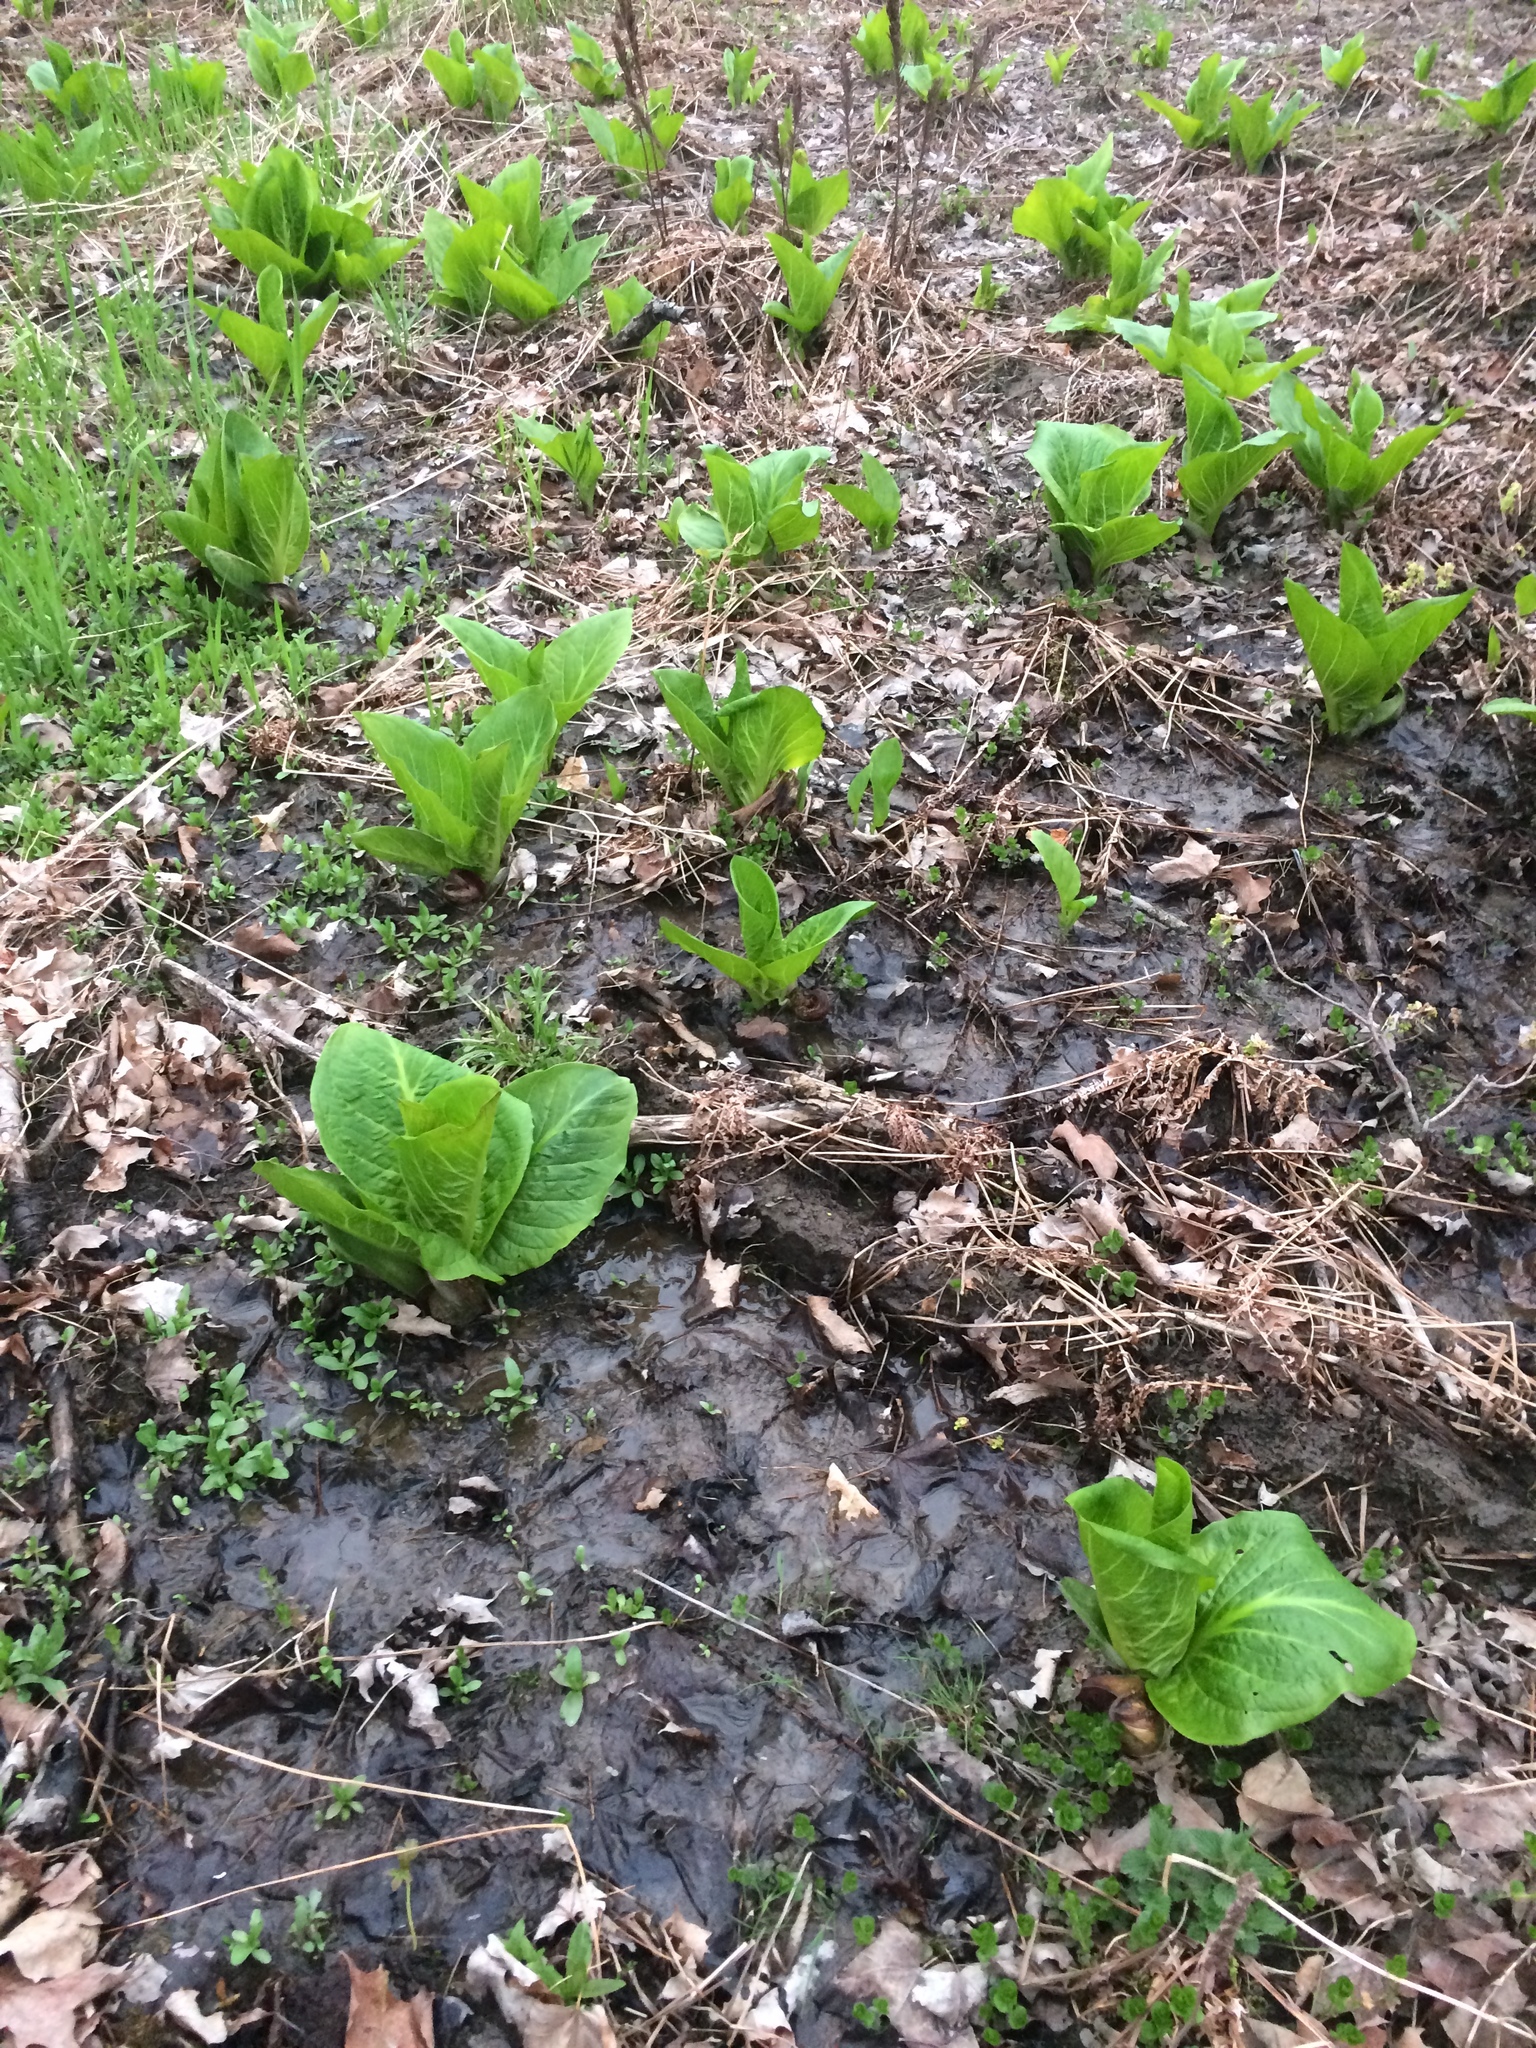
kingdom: Plantae
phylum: Tracheophyta
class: Liliopsida
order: Alismatales
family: Araceae
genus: Symplocarpus
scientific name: Symplocarpus foetidus
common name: Eastern skunk cabbage
